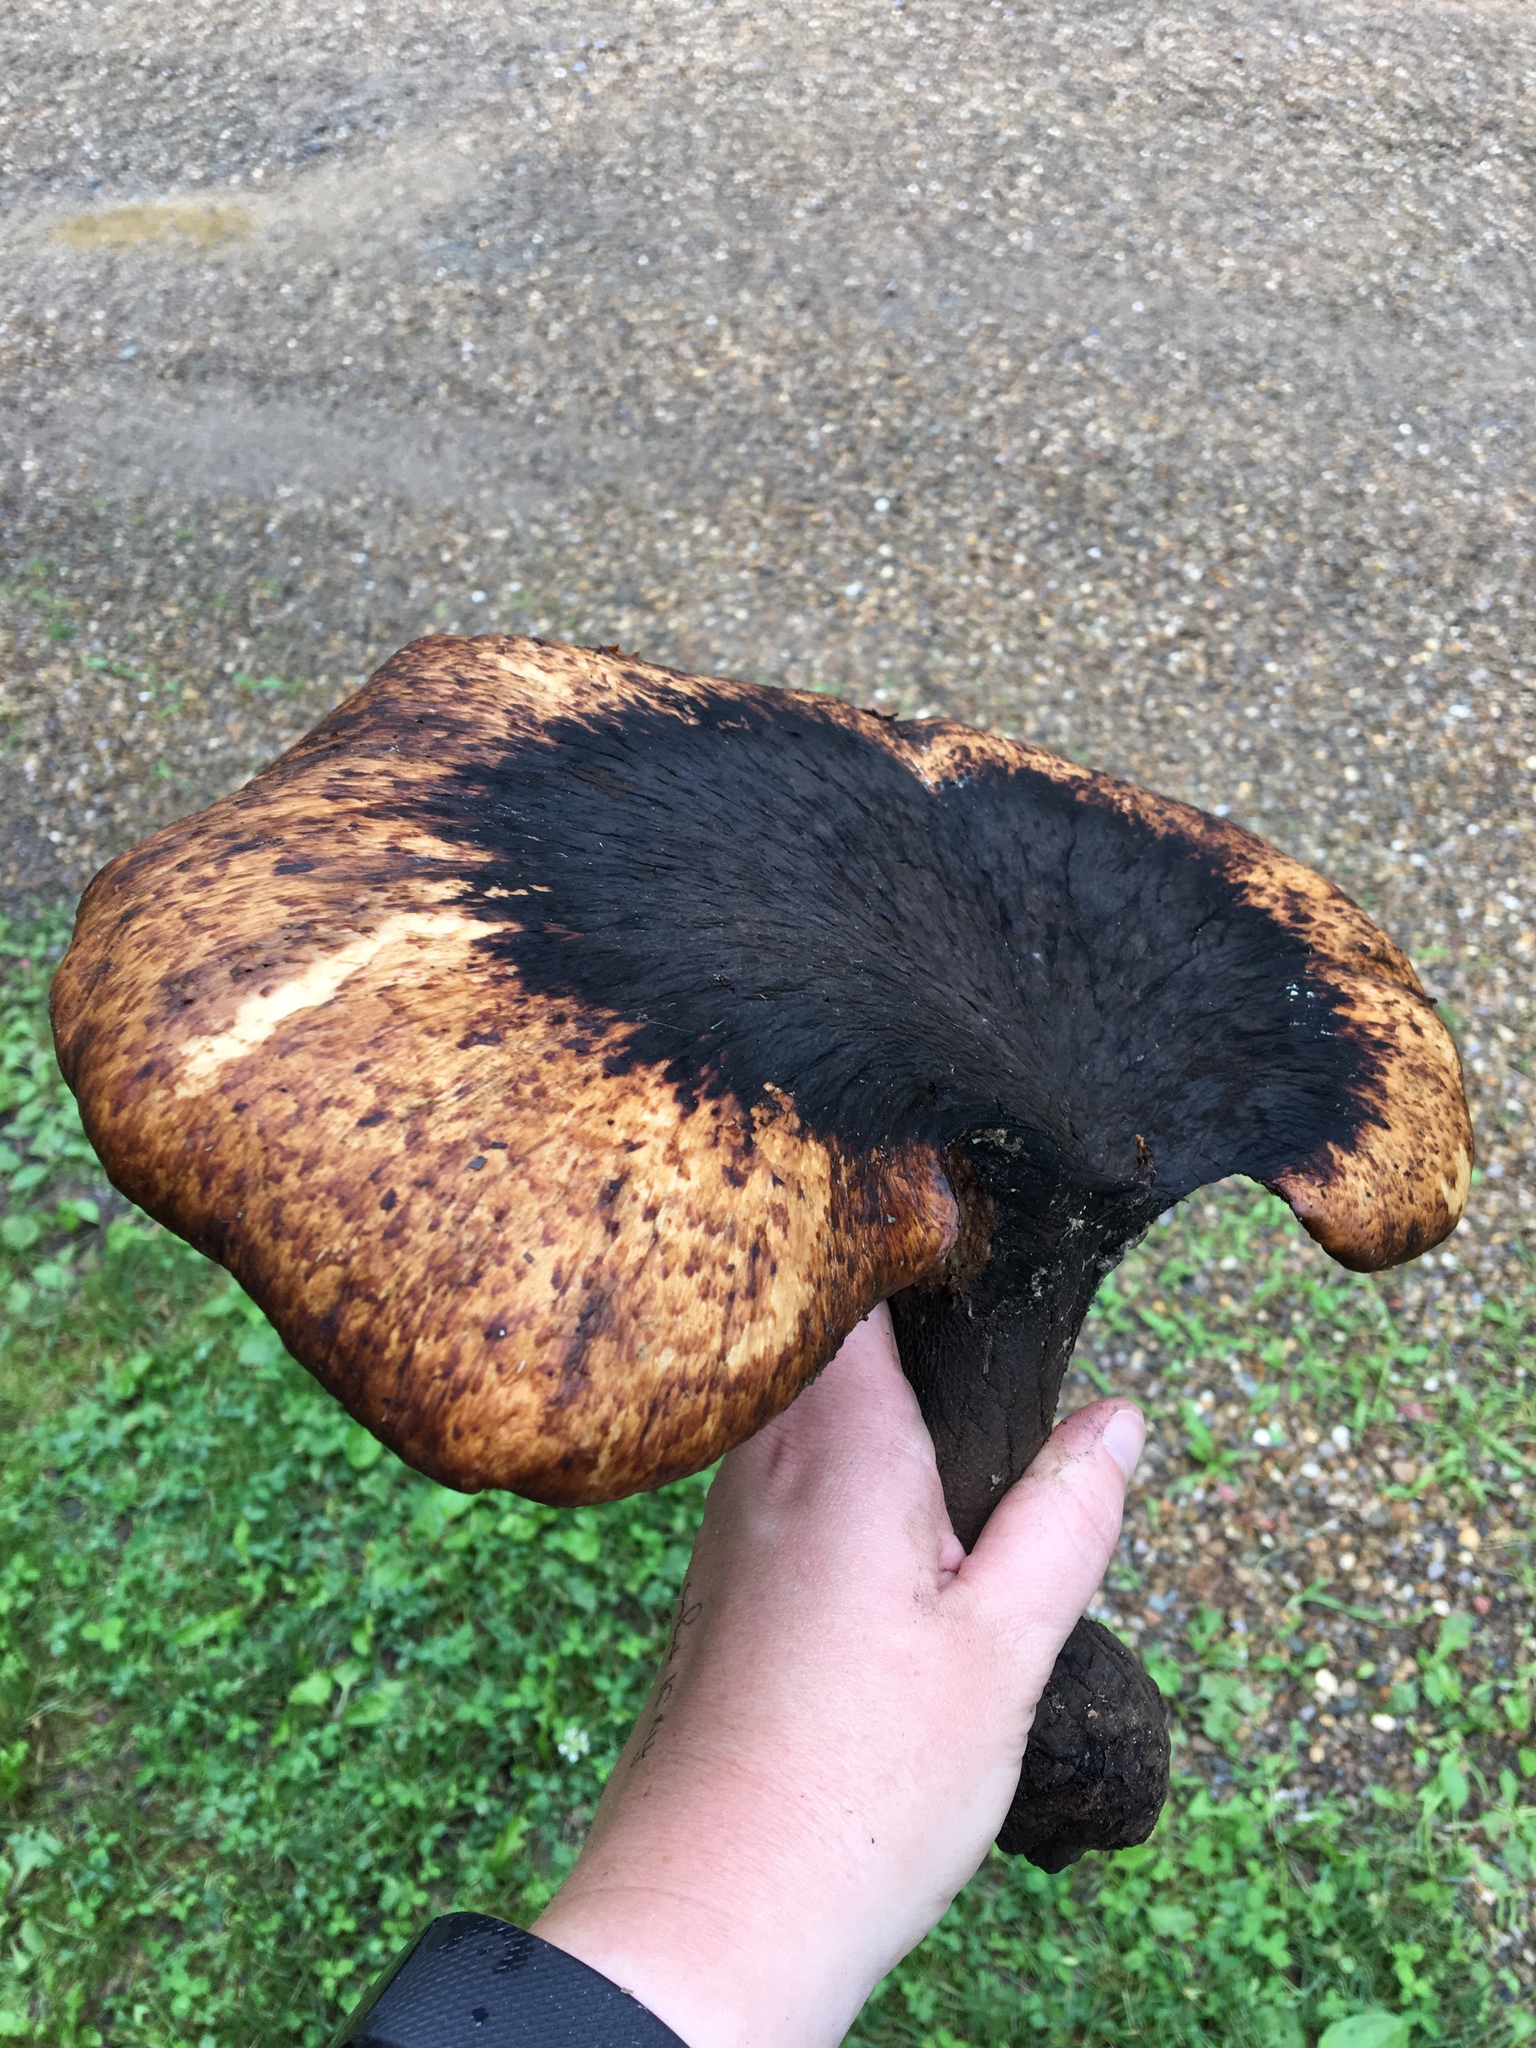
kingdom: Fungi
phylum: Basidiomycota
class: Agaricomycetes
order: Polyporales
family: Polyporaceae
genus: Cerioporus
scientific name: Cerioporus squamosus
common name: Dryad's saddle
